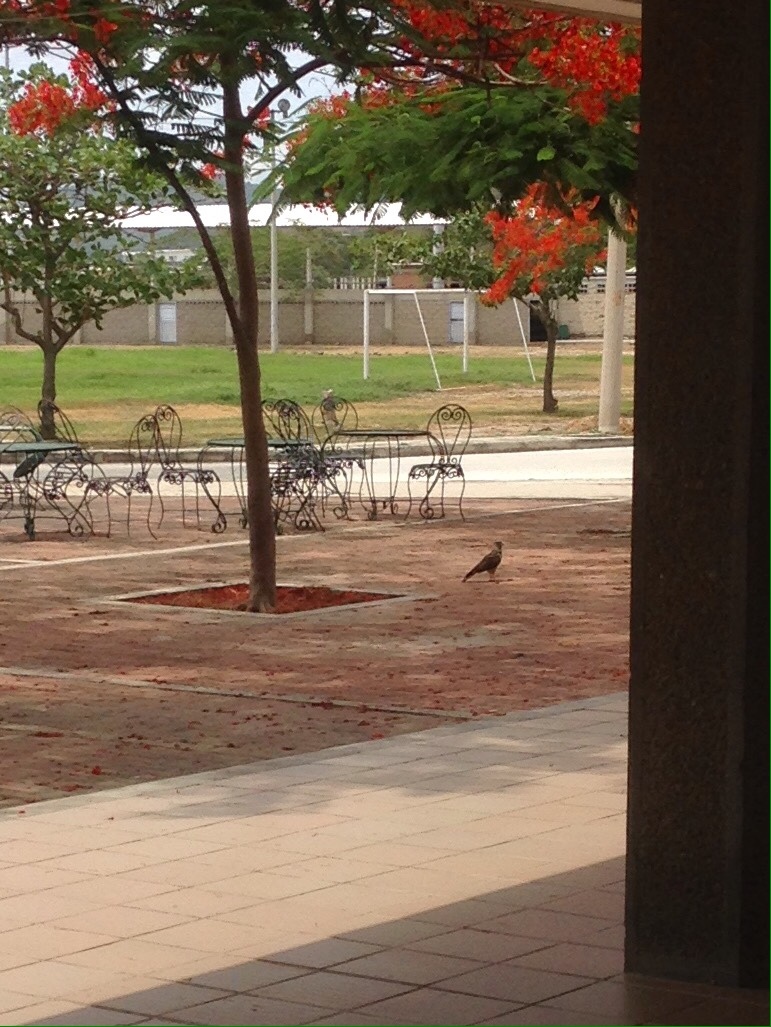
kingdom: Animalia
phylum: Chordata
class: Aves
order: Falconiformes
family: Falconidae
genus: Daptrius
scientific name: Daptrius
